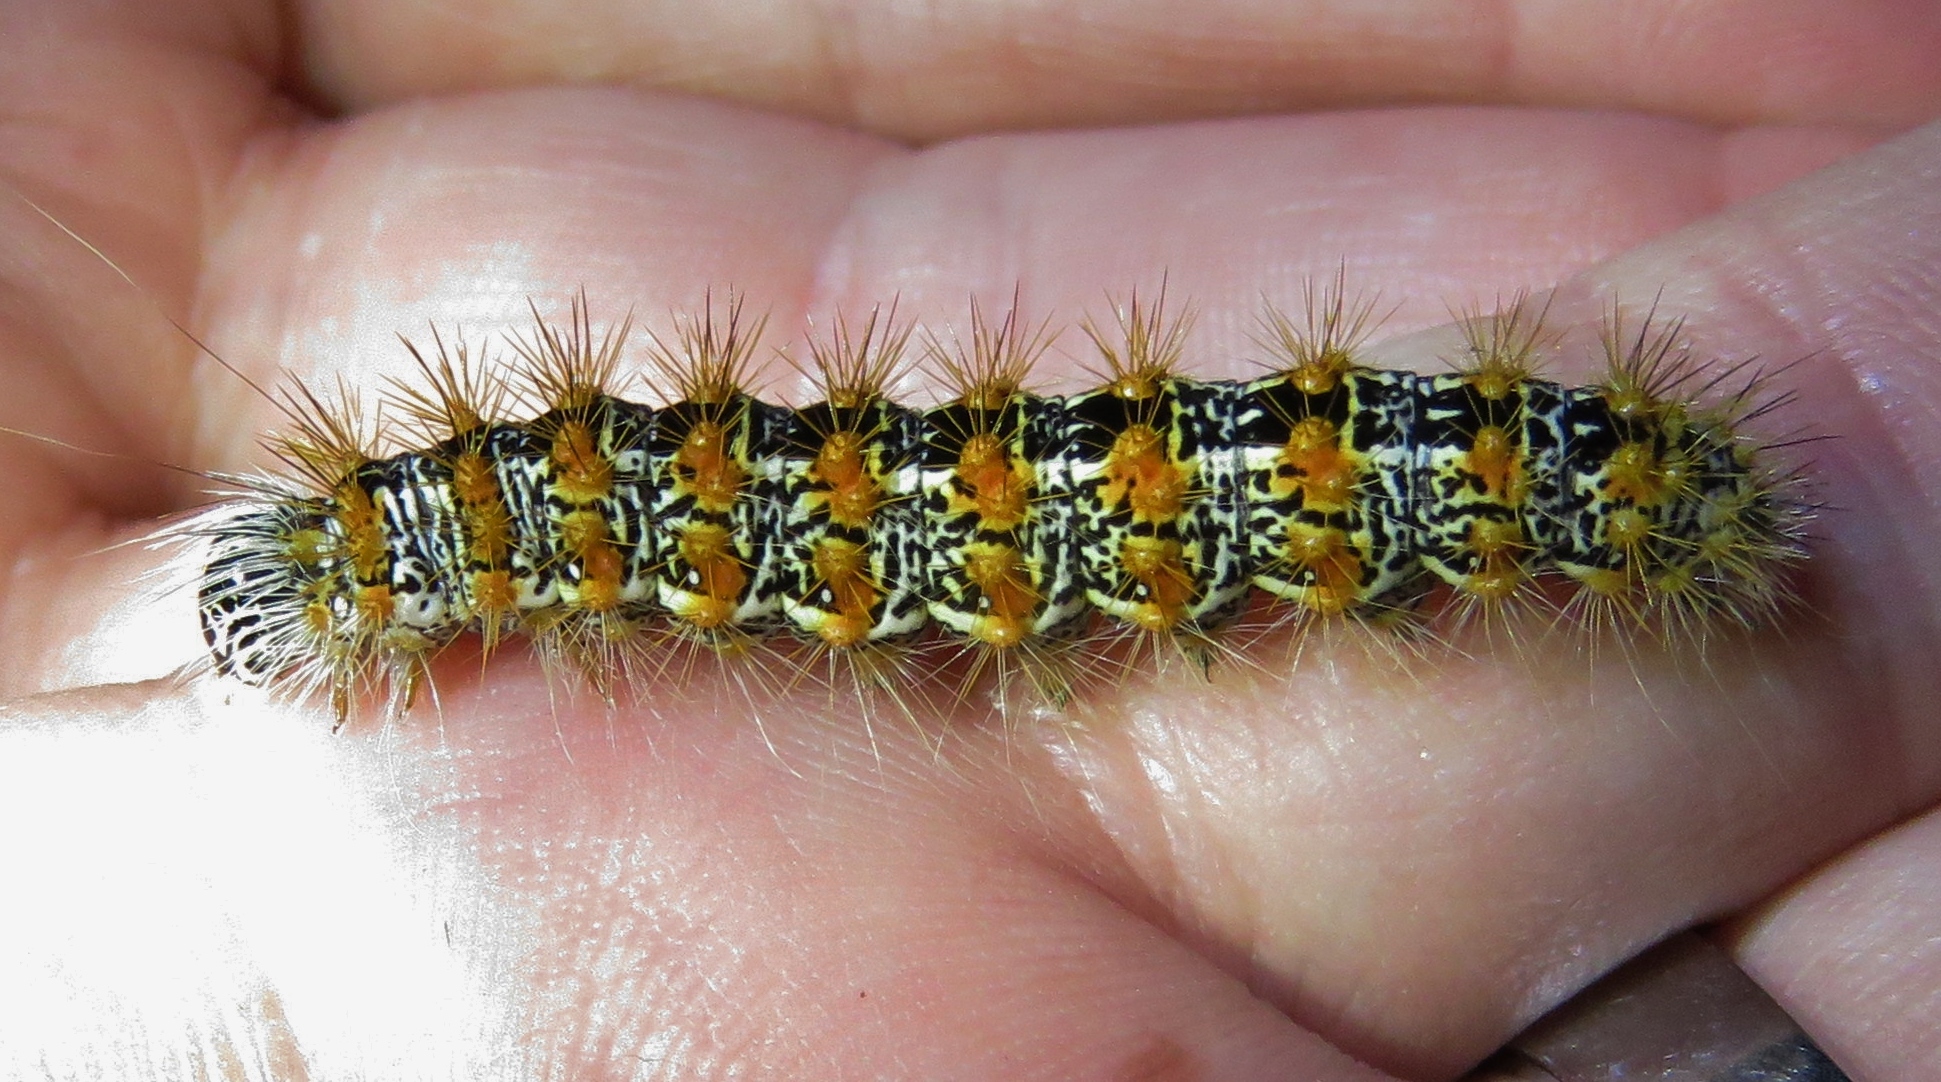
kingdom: Animalia
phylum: Arthropoda
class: Insecta
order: Lepidoptera
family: Noctuidae
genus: Acronicta
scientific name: Acronicta insularis
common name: Henry's marsh moth
